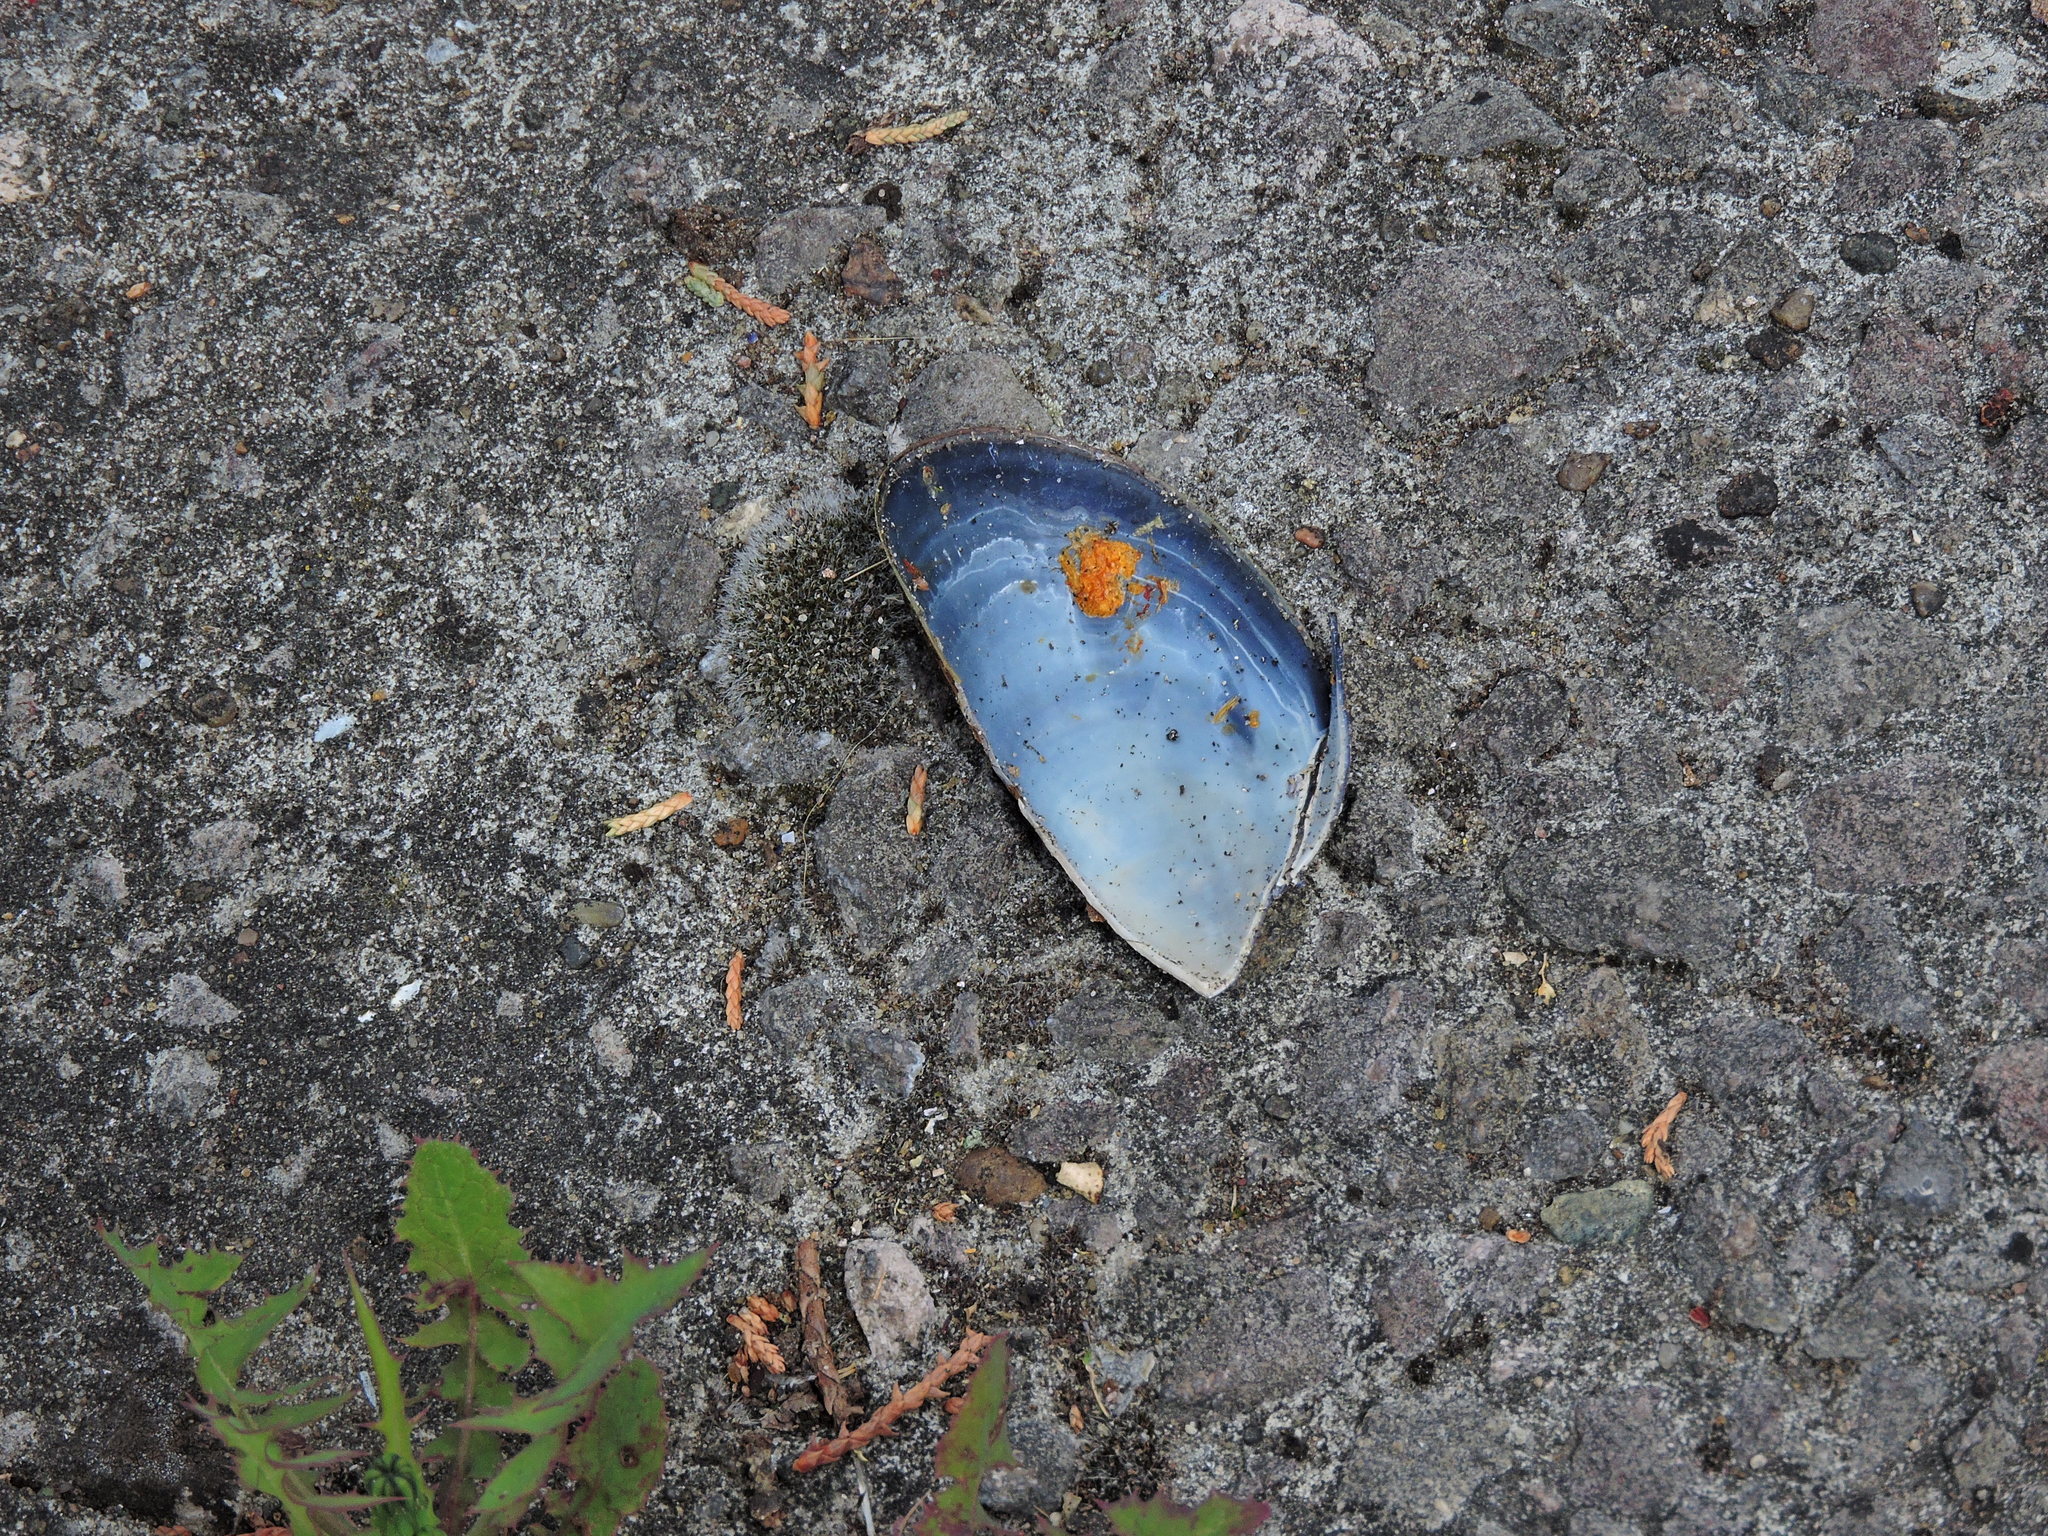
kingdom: Animalia
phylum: Mollusca
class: Bivalvia
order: Mytilida
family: Mytilidae
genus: Mytilus
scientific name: Mytilus edulis
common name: Blue mussel
